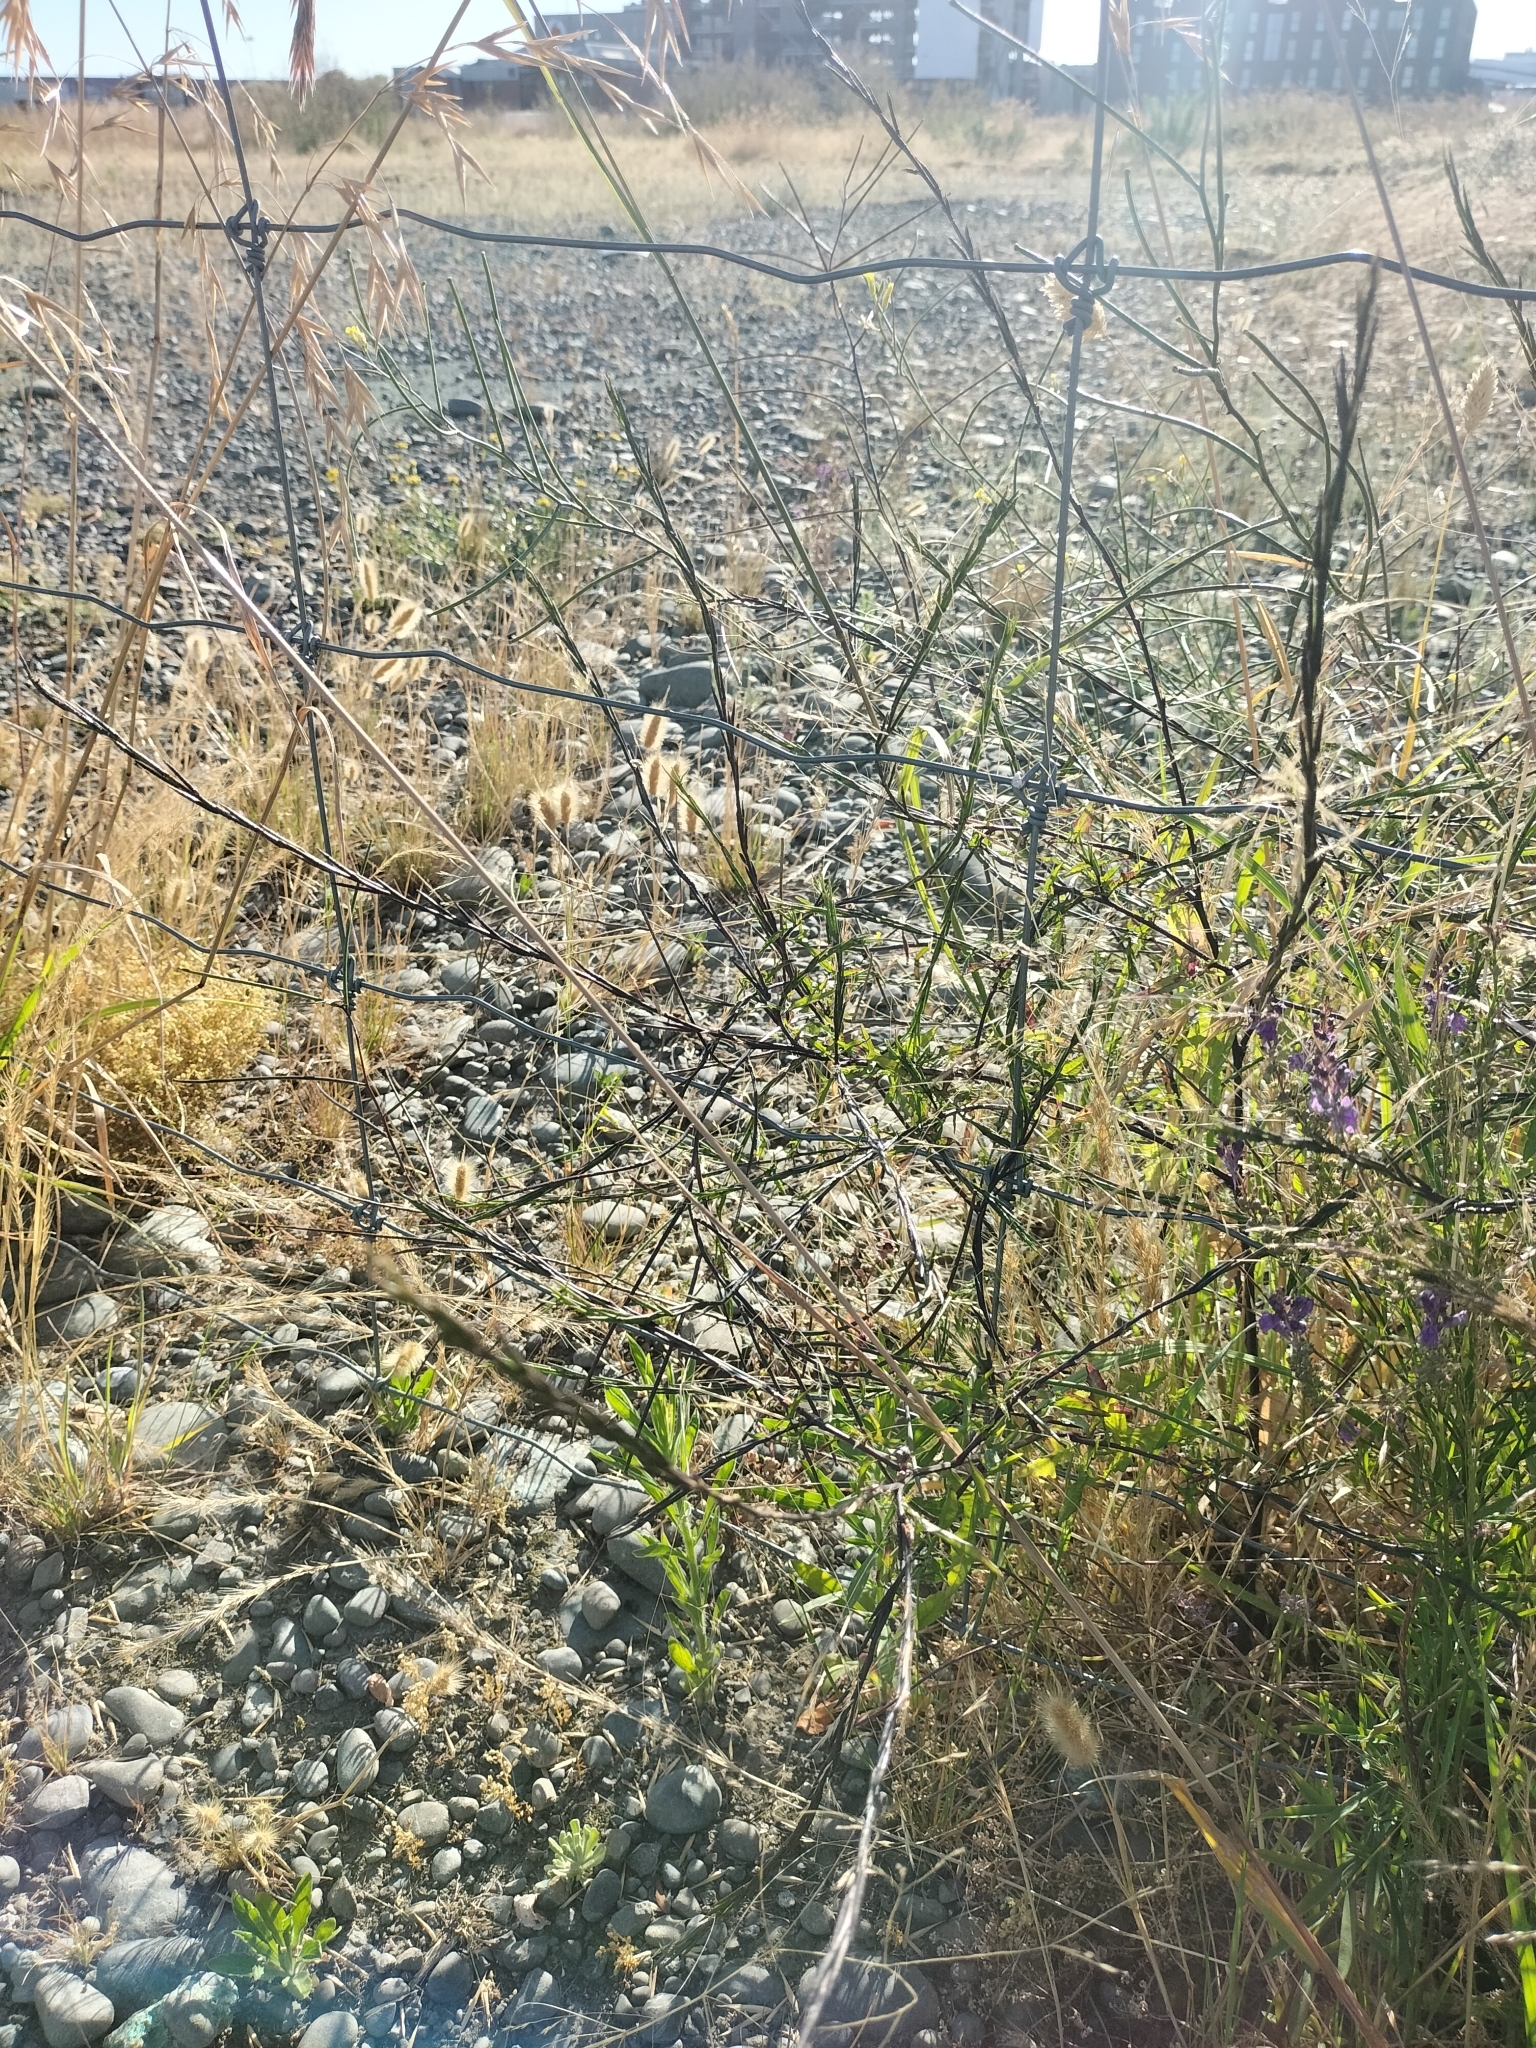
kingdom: Plantae
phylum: Tracheophyta
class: Magnoliopsida
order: Brassicales
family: Brassicaceae
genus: Sisymbrium
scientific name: Sisymbrium officinale
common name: Hedge mustard
